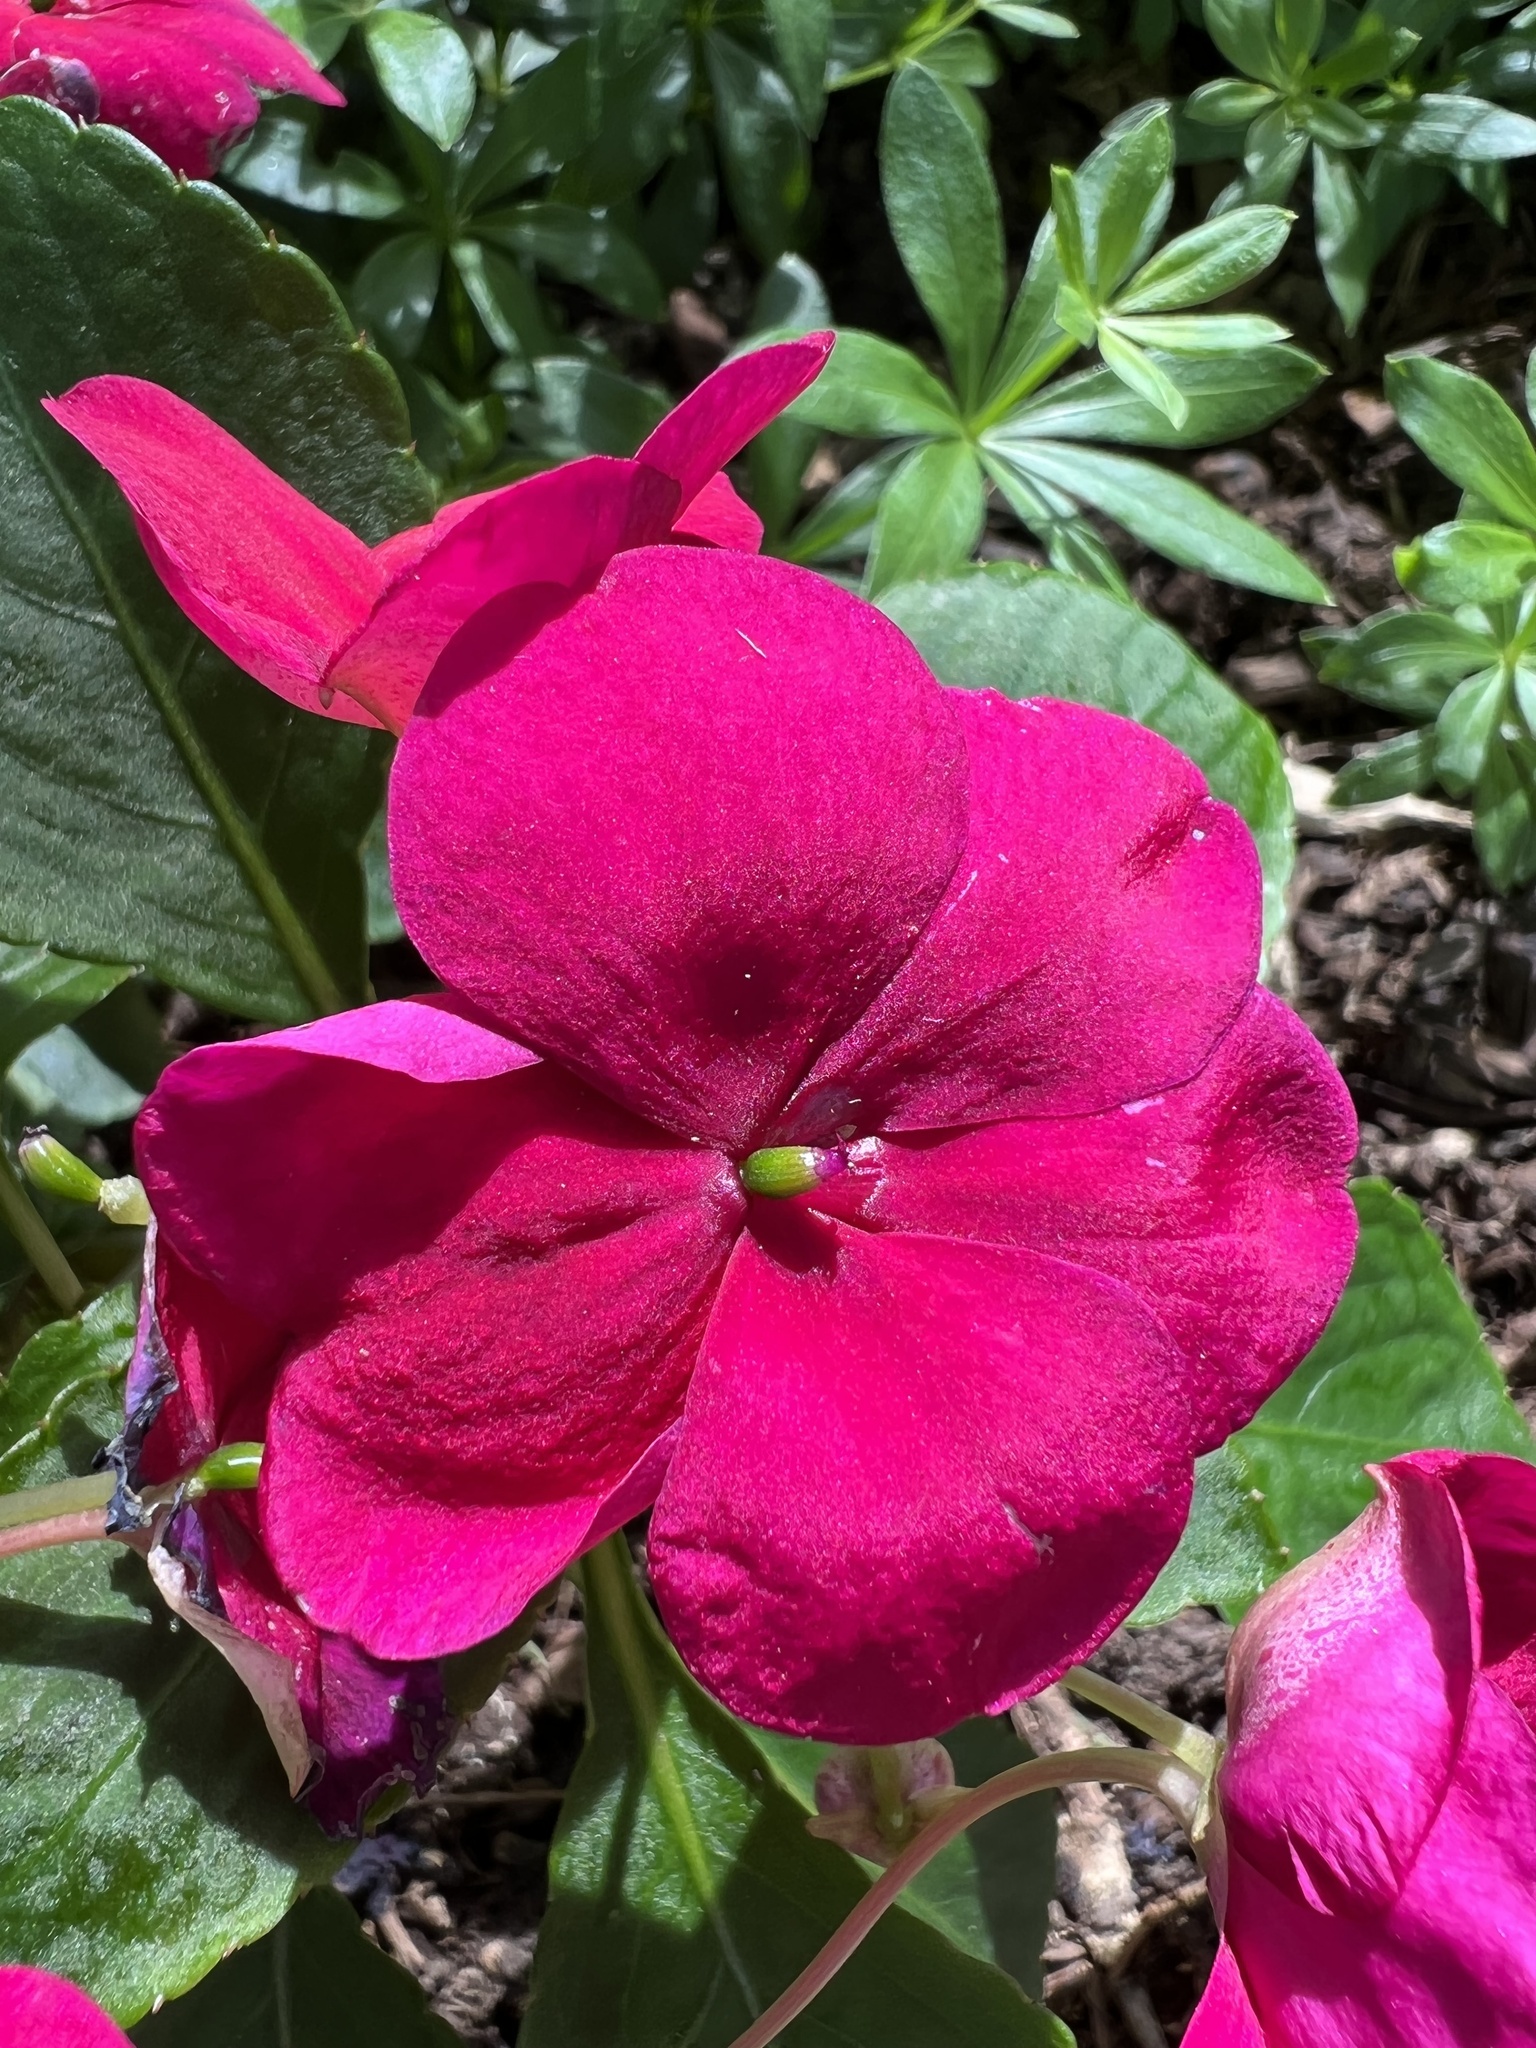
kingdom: Plantae
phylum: Tracheophyta
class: Magnoliopsida
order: Ericales
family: Balsaminaceae
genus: Impatiens
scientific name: Impatiens walleriana
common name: Buzzy lizzy
